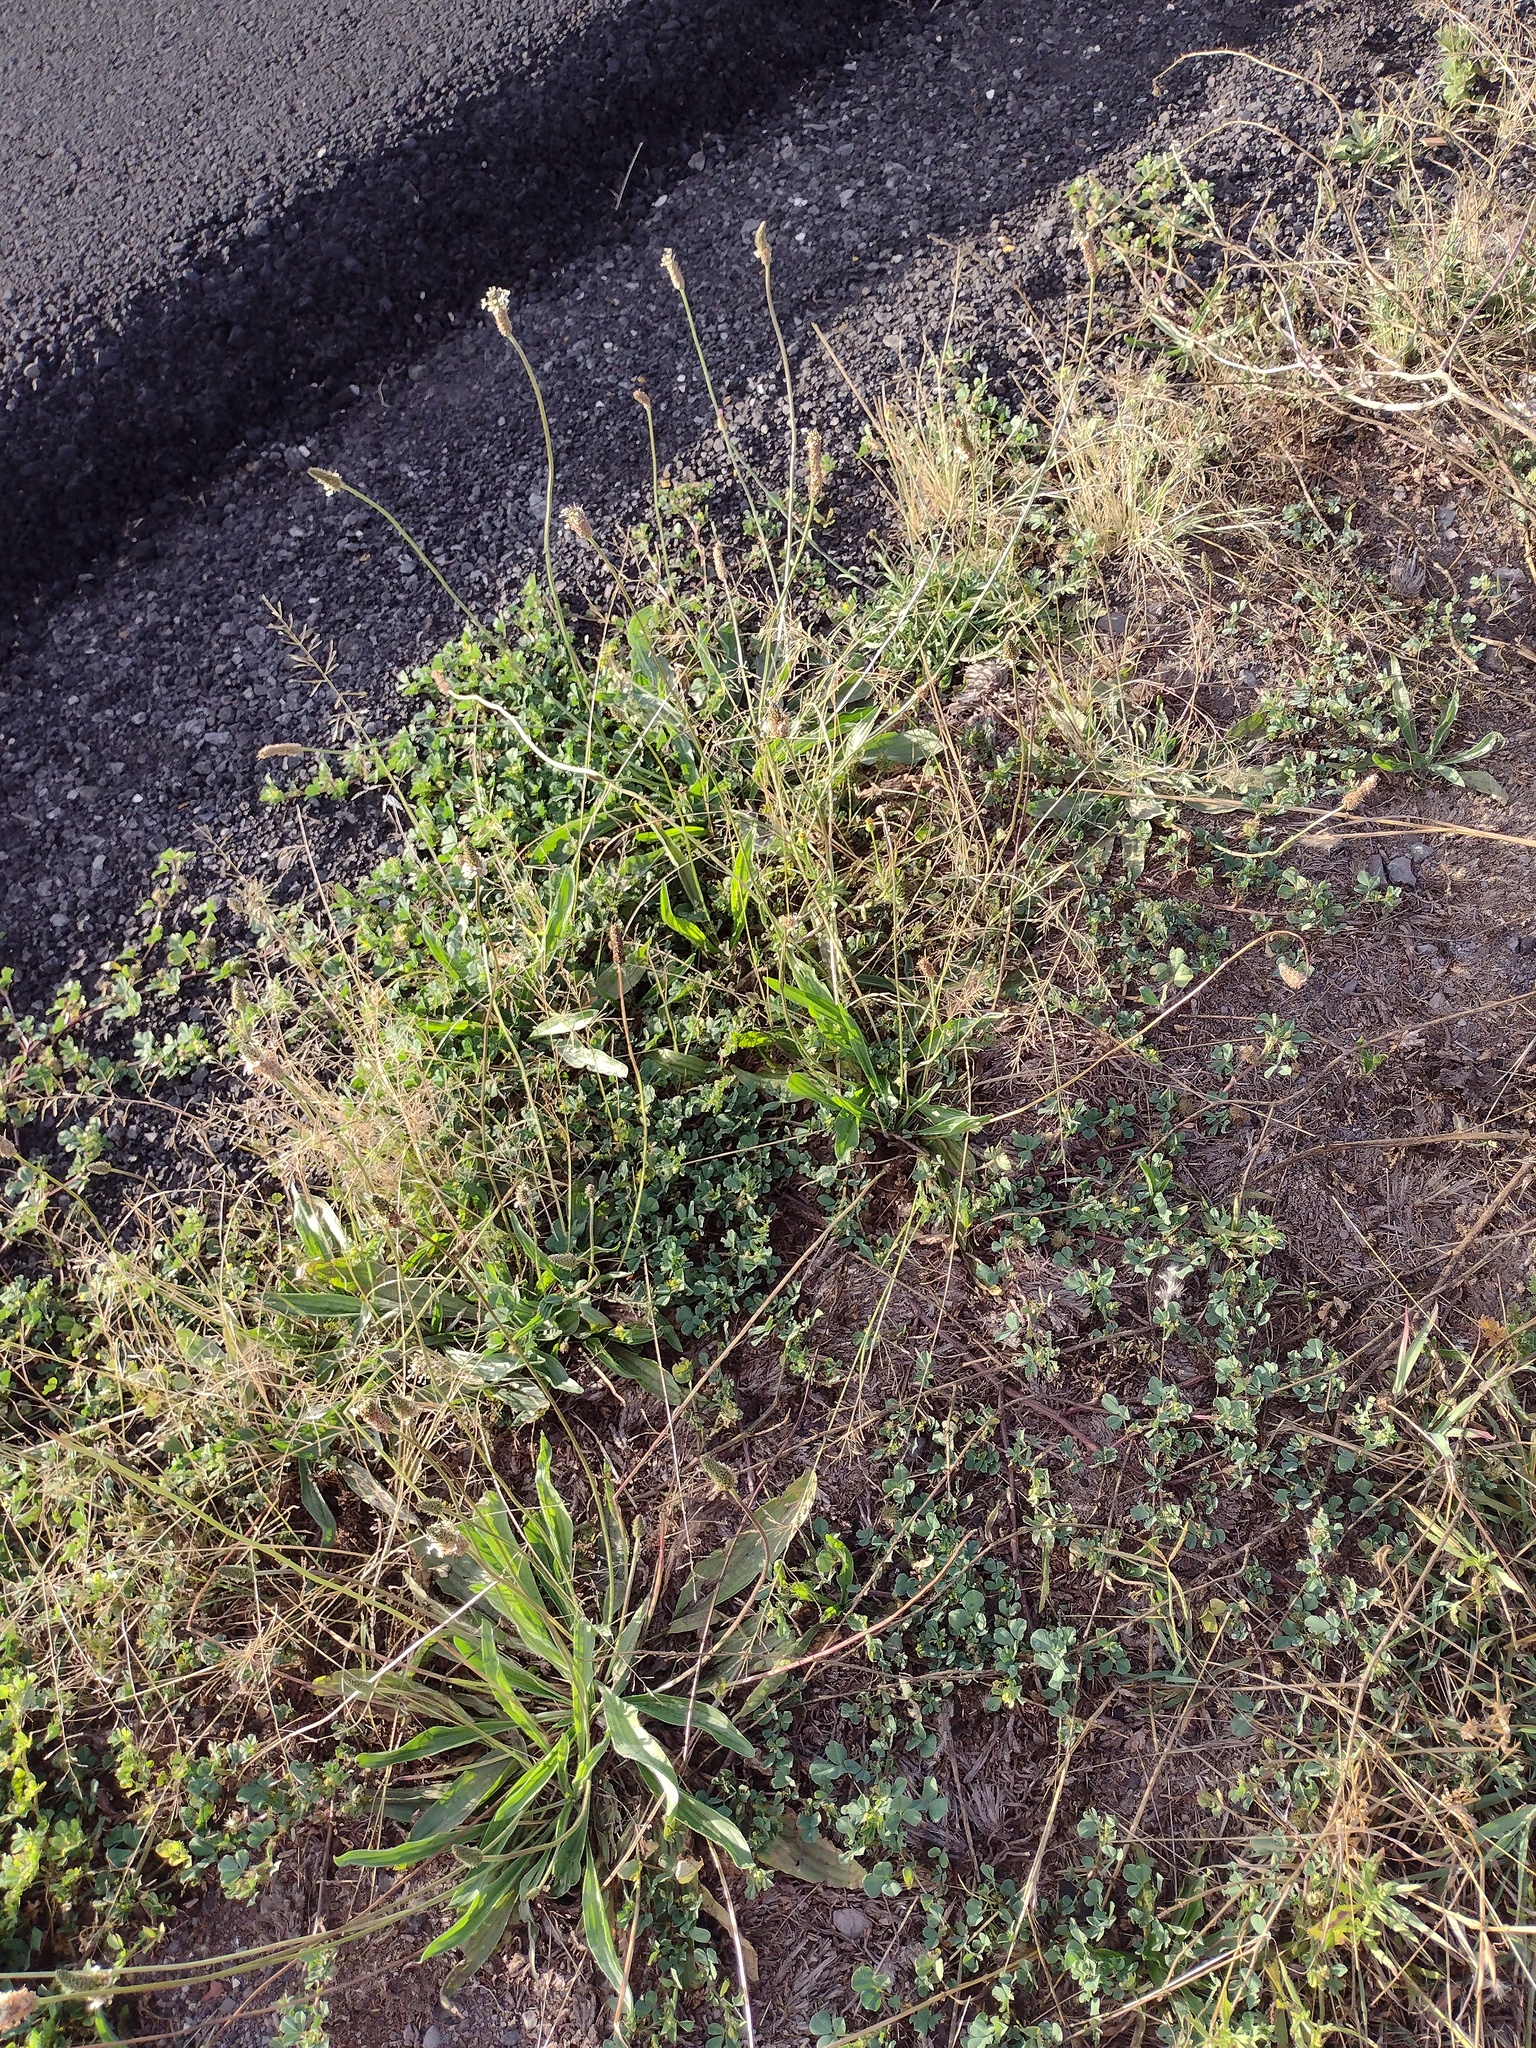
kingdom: Plantae
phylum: Tracheophyta
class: Magnoliopsida
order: Lamiales
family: Plantaginaceae
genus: Plantago
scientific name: Plantago lanceolata
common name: Ribwort plantain
